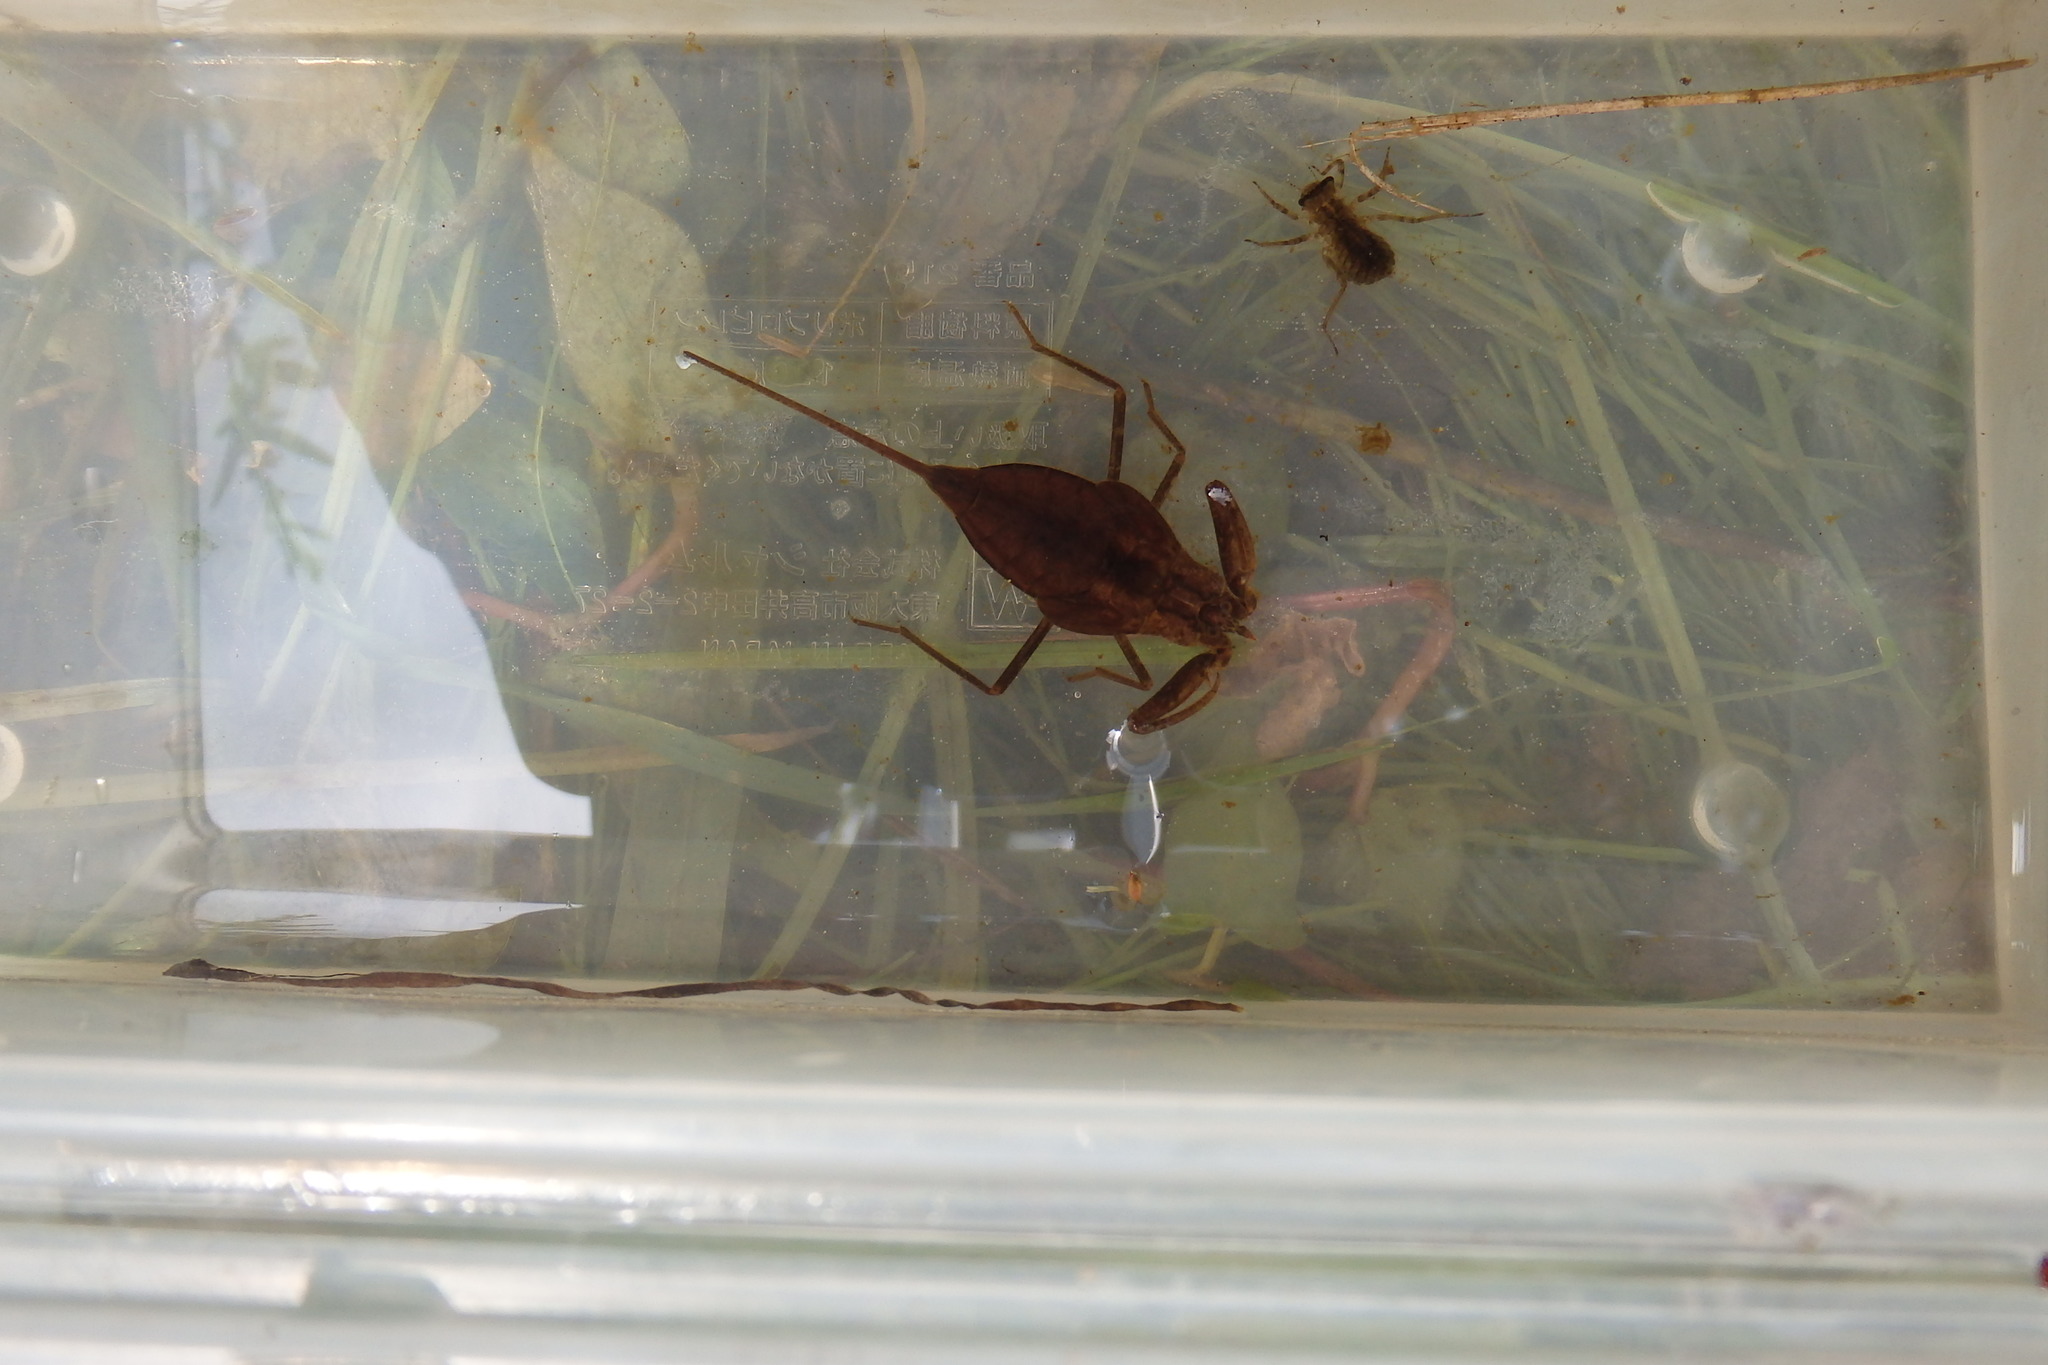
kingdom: Animalia
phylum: Arthropoda
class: Insecta
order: Hemiptera
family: Nepidae
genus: Laccotrephes
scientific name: Laccotrephes japonensis
